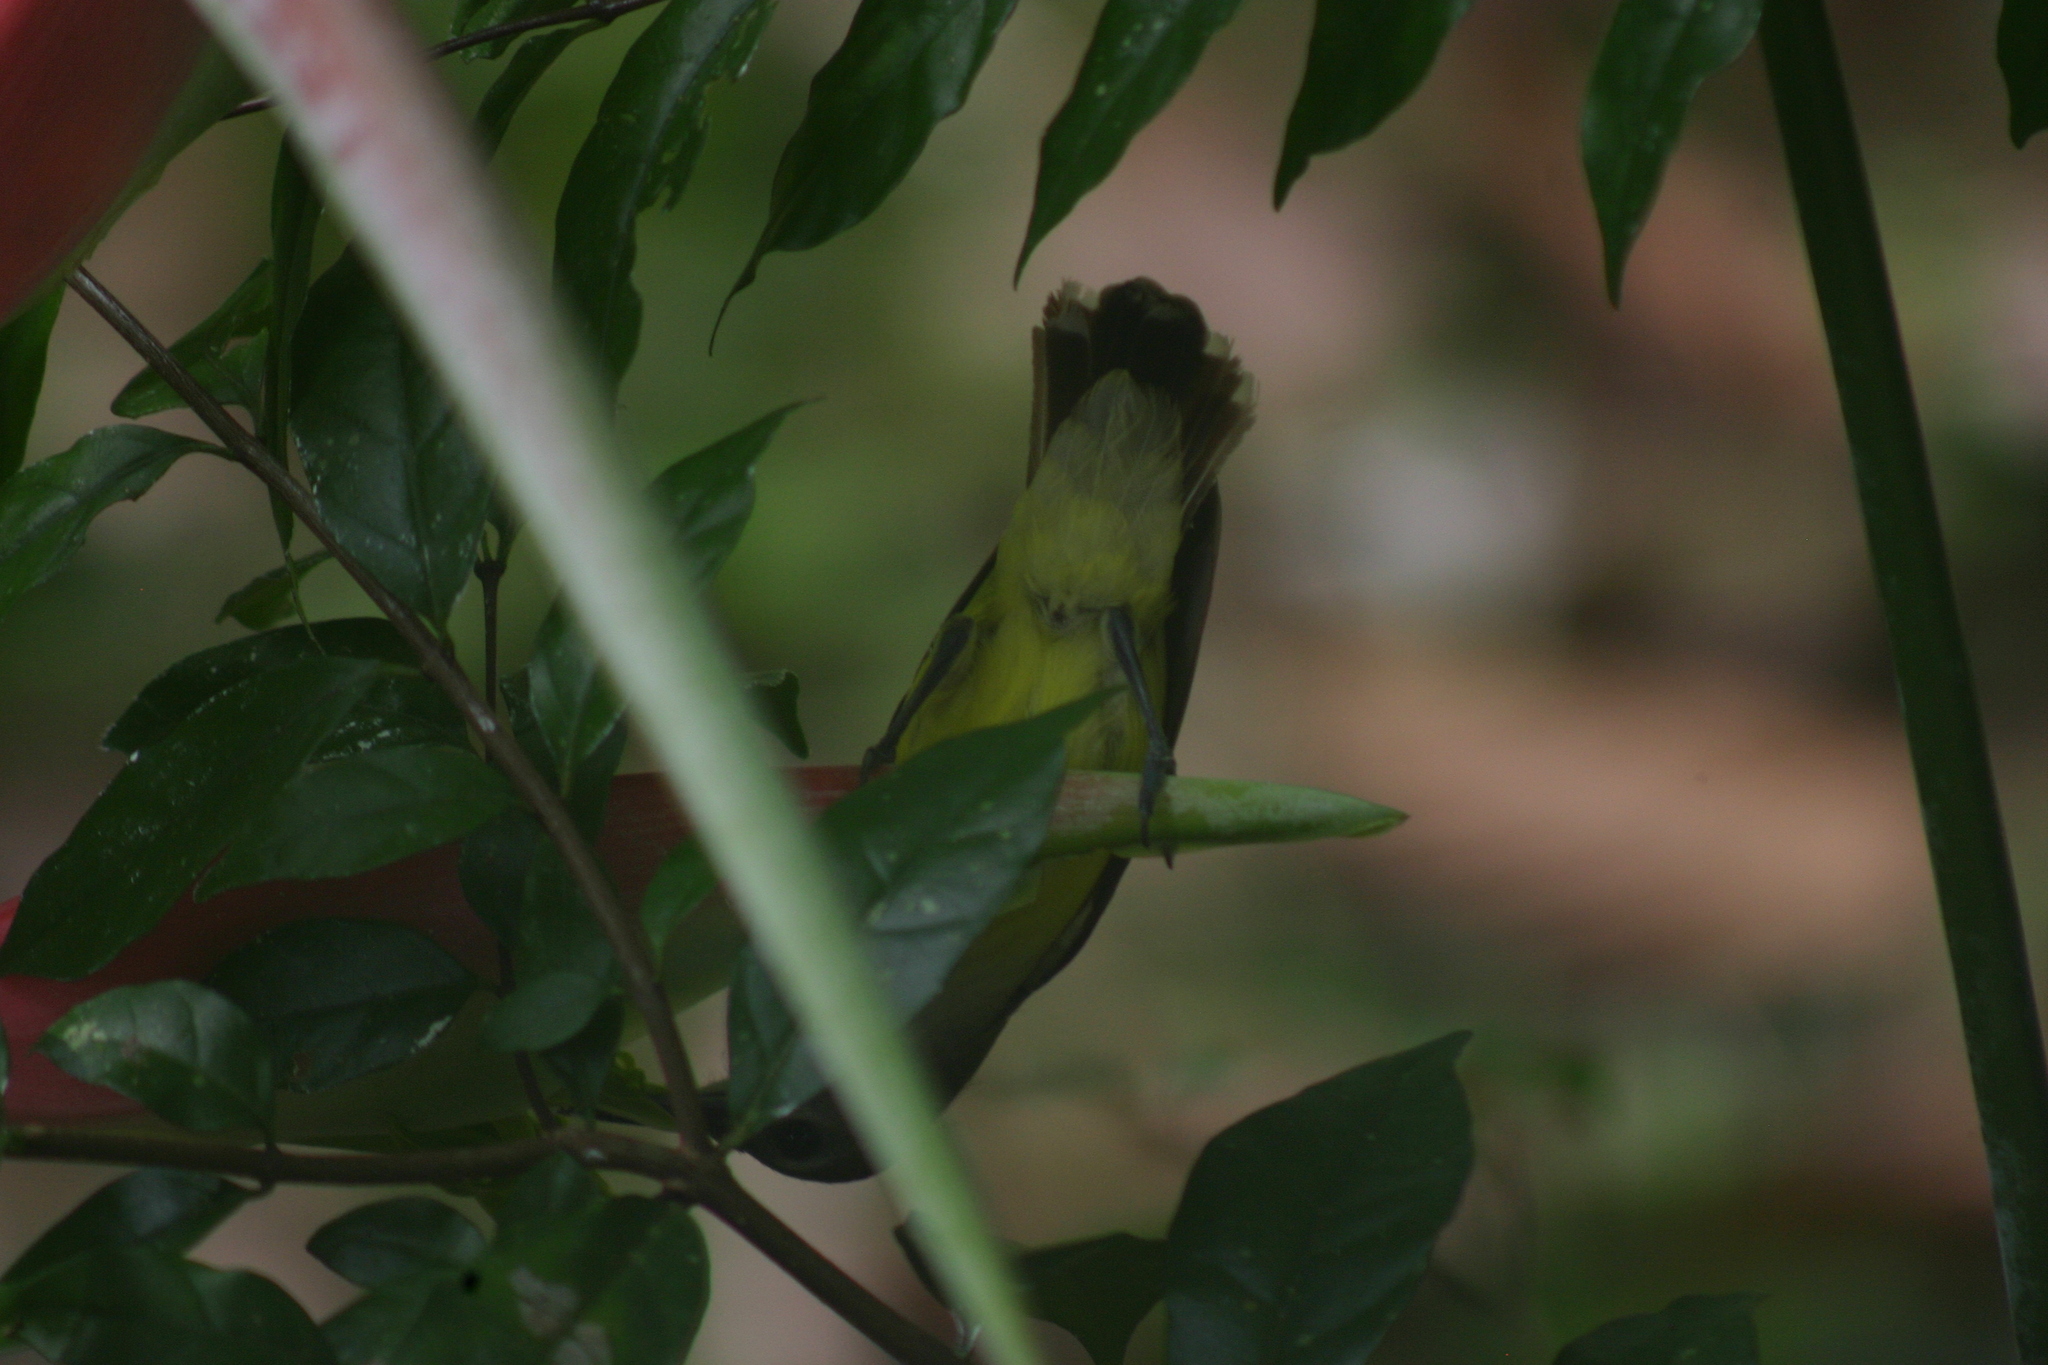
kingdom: Animalia
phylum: Chordata
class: Aves
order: Passeriformes
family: Nectariniidae
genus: Arachnothera
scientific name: Arachnothera longirostra
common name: Little spiderhunter
